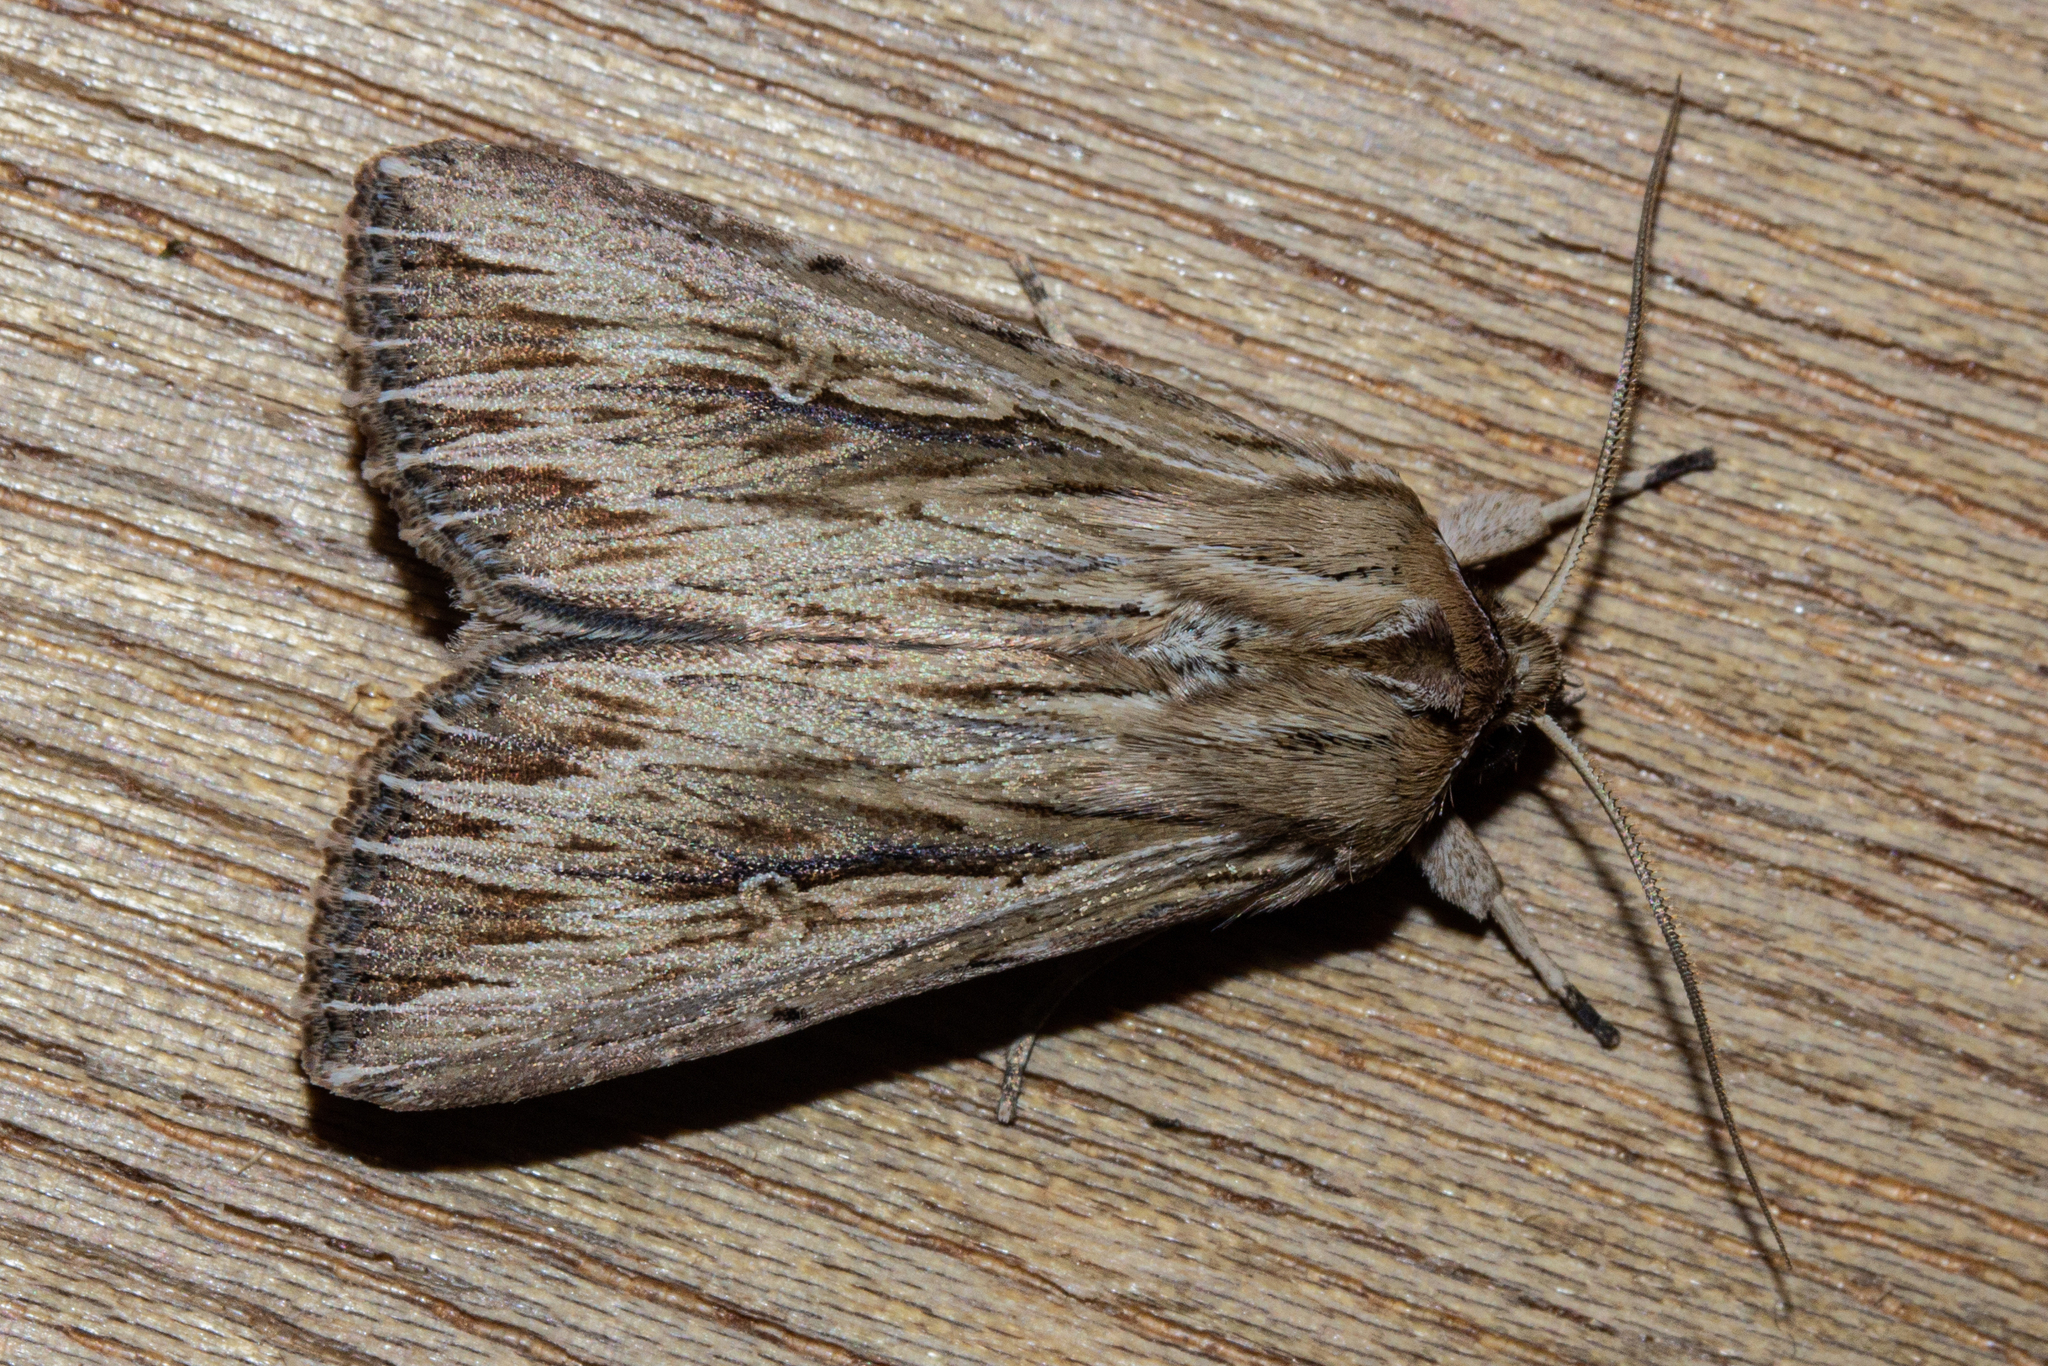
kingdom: Animalia
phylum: Arthropoda
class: Insecta
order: Lepidoptera
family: Noctuidae
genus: Persectania
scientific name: Persectania aversa
